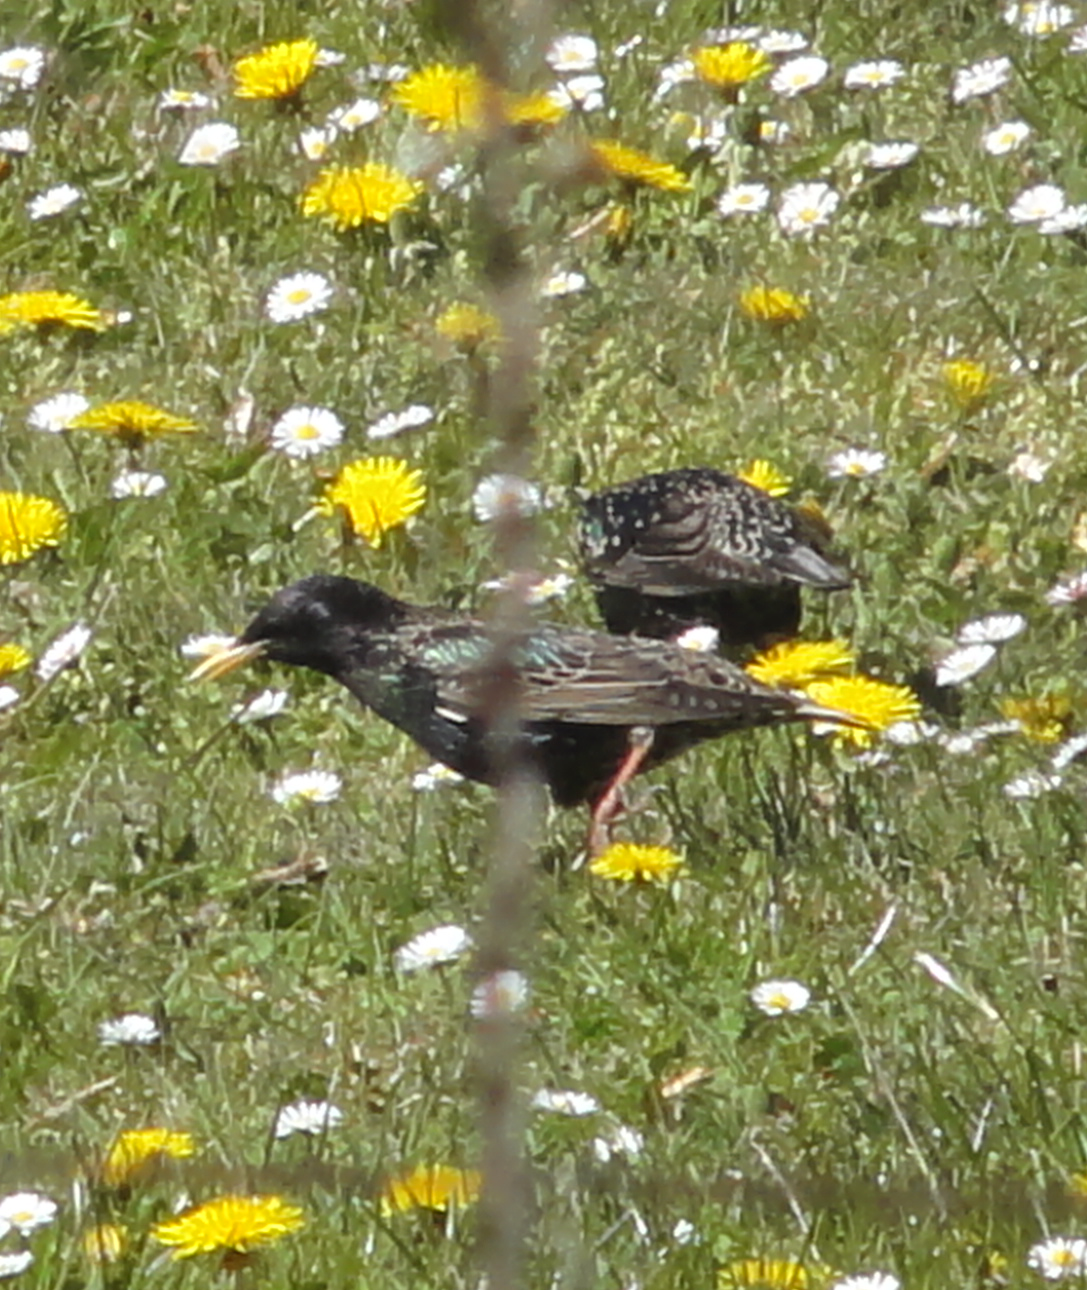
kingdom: Animalia
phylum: Chordata
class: Aves
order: Passeriformes
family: Sturnidae
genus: Sturnus
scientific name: Sturnus vulgaris
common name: Common starling
